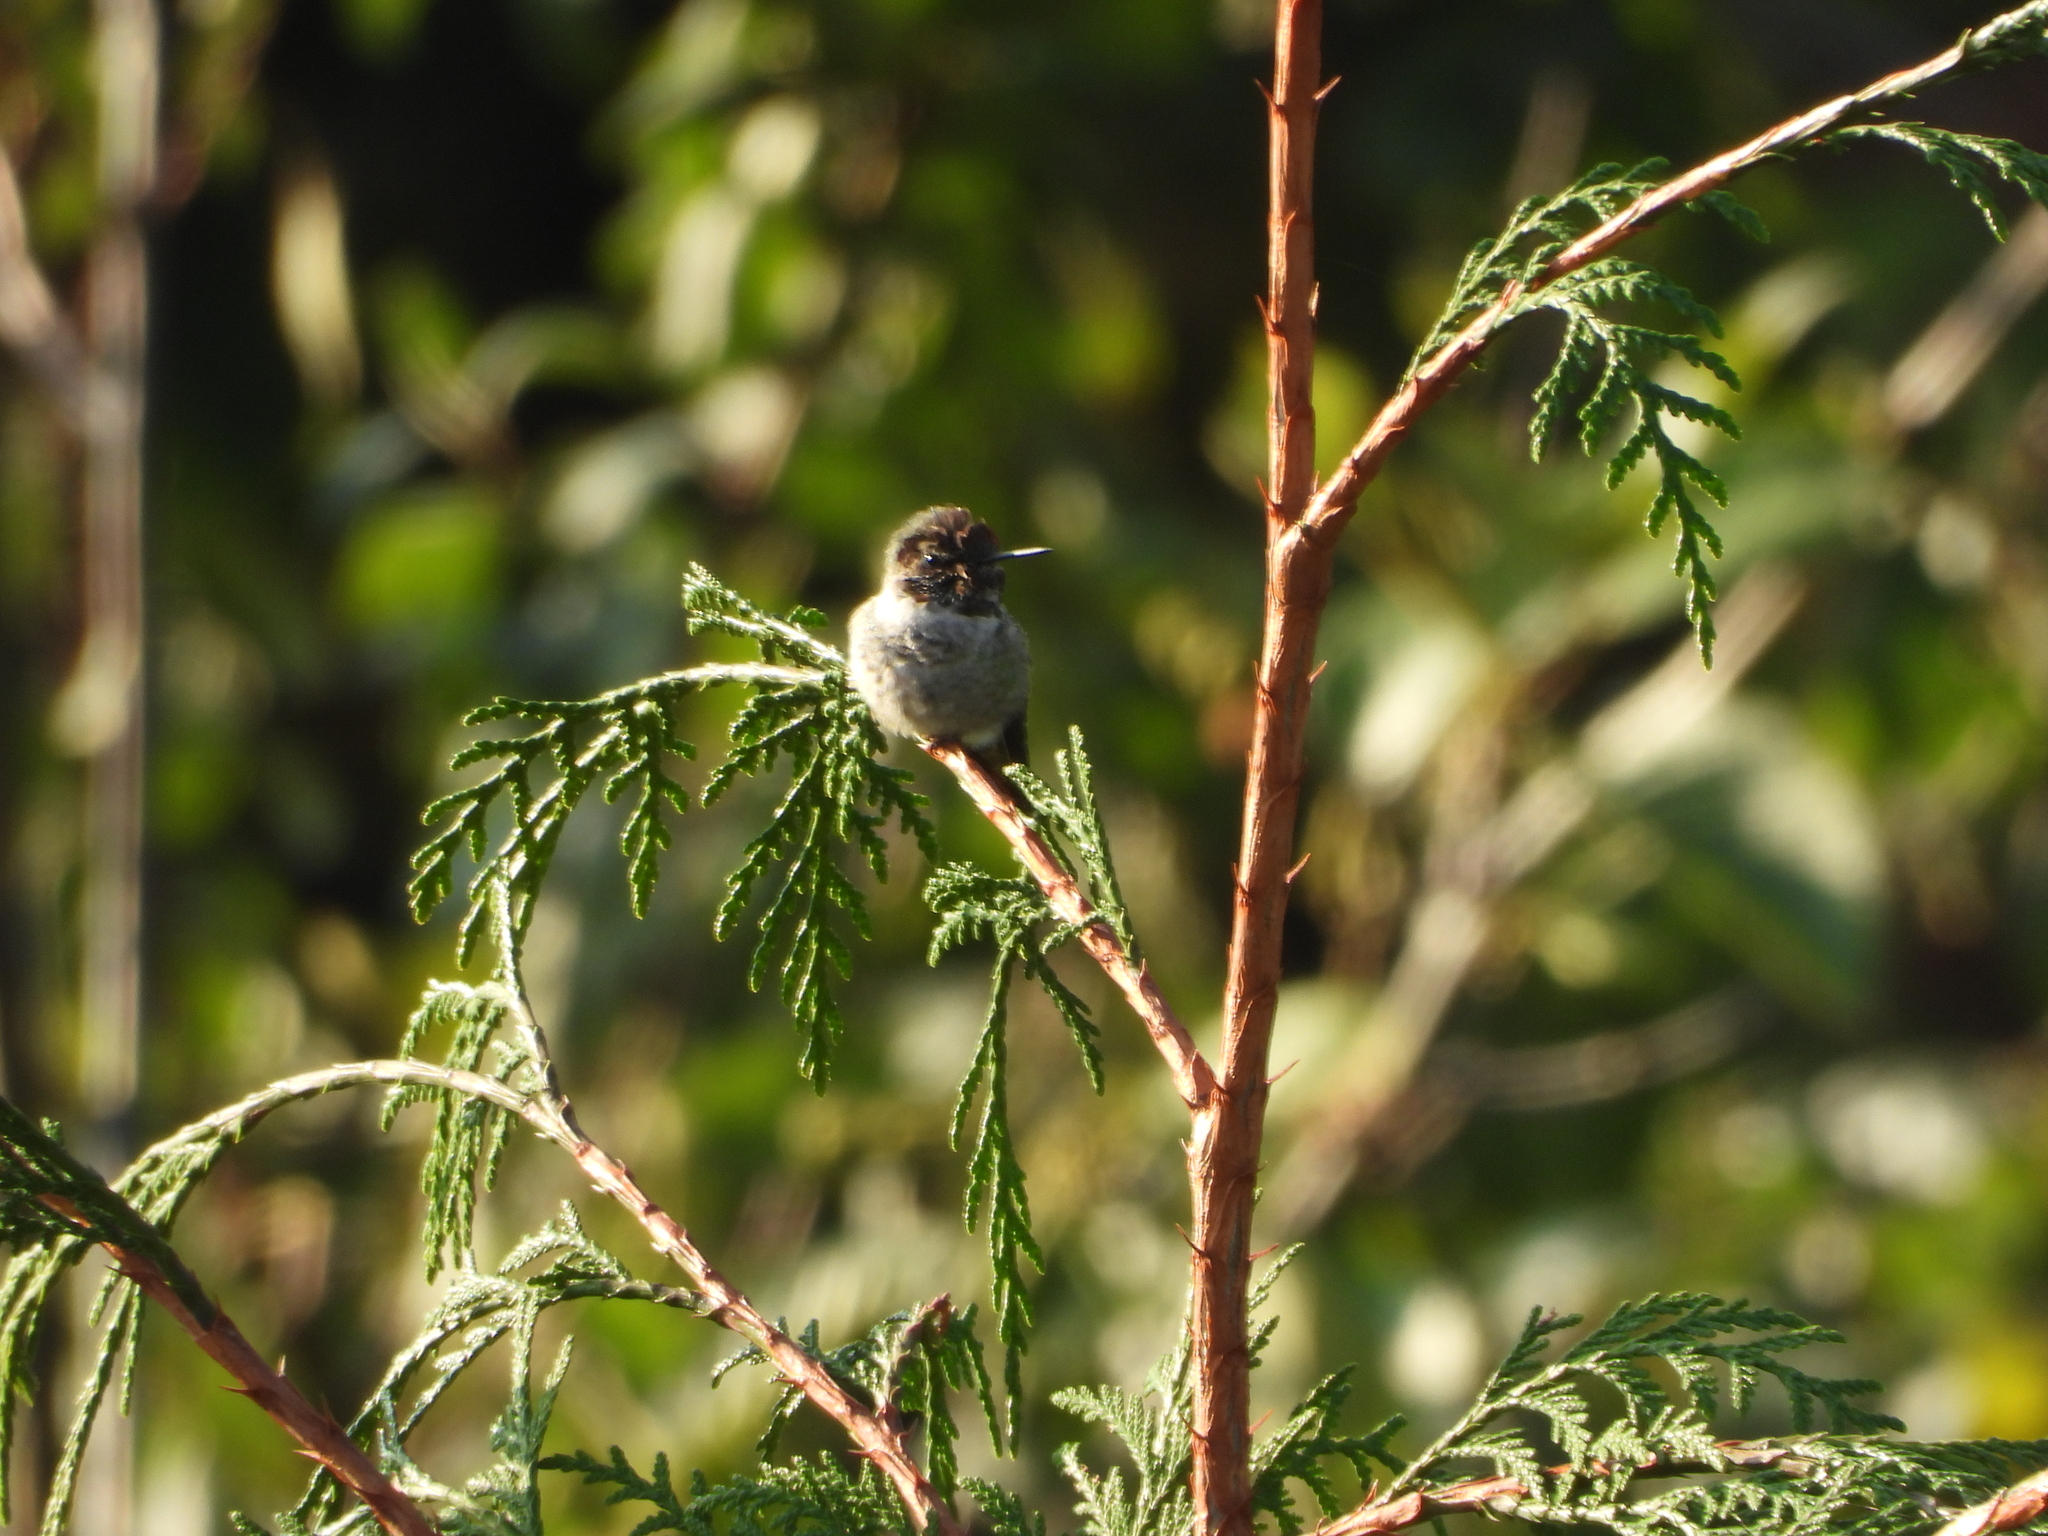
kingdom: Animalia
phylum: Chordata
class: Aves
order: Apodiformes
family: Trochilidae
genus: Calypte
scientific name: Calypte anna
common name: Anna's hummingbird
